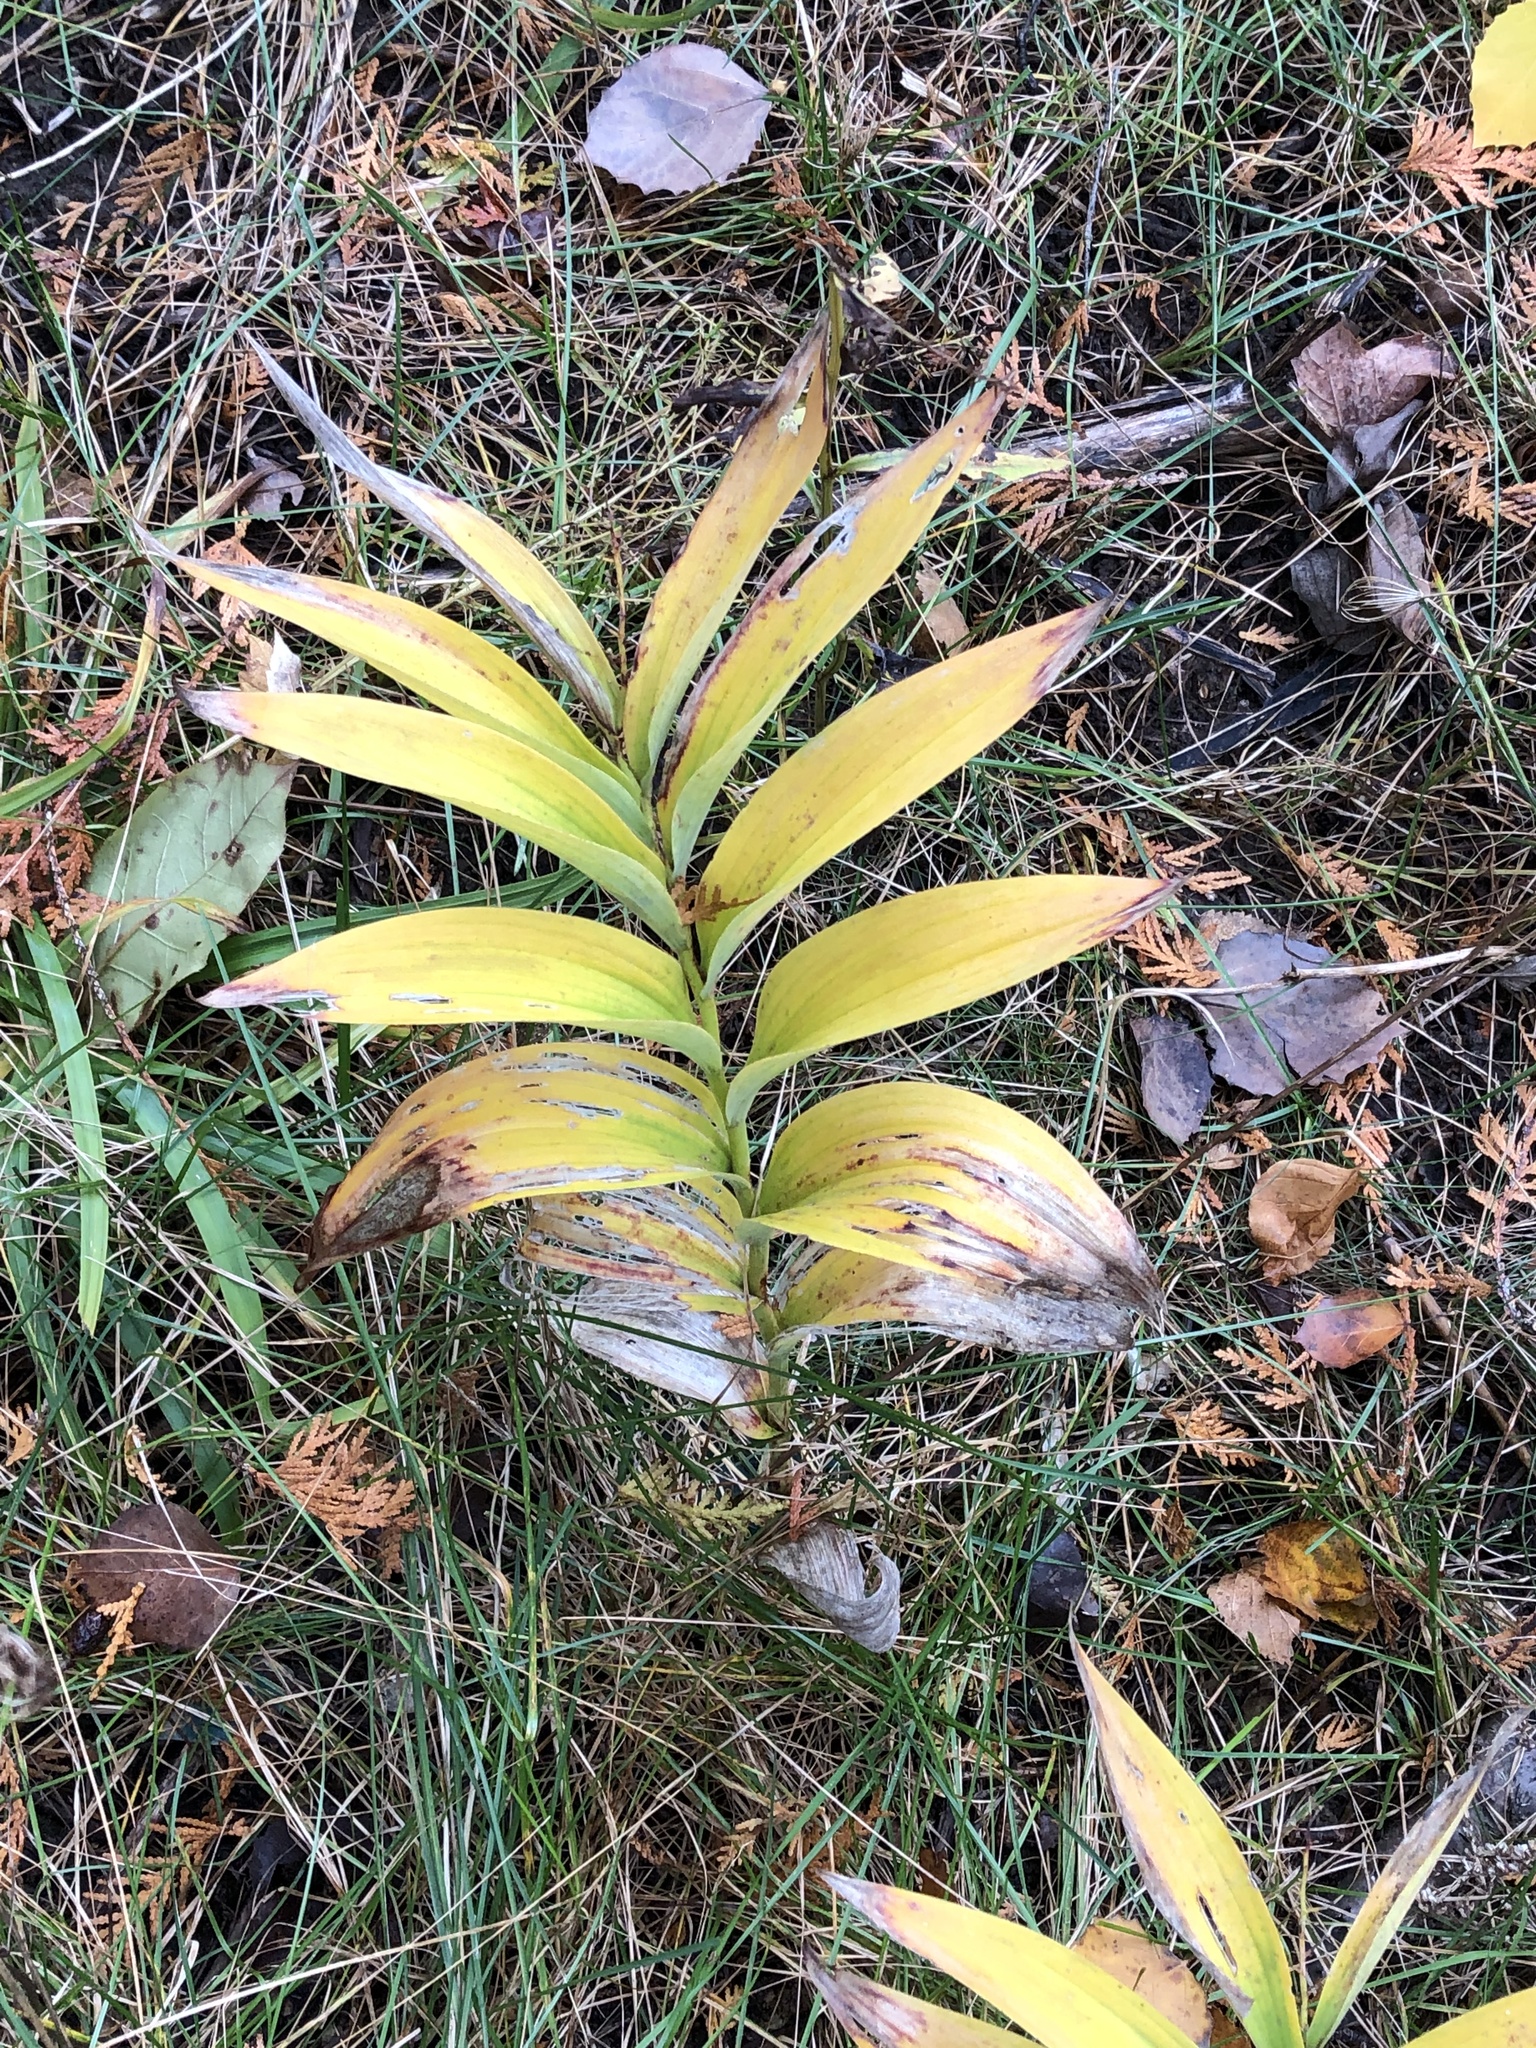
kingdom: Plantae
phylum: Tracheophyta
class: Liliopsida
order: Asparagales
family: Asparagaceae
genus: Maianthemum
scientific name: Maianthemum stellatum
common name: Little false solomon's seal
